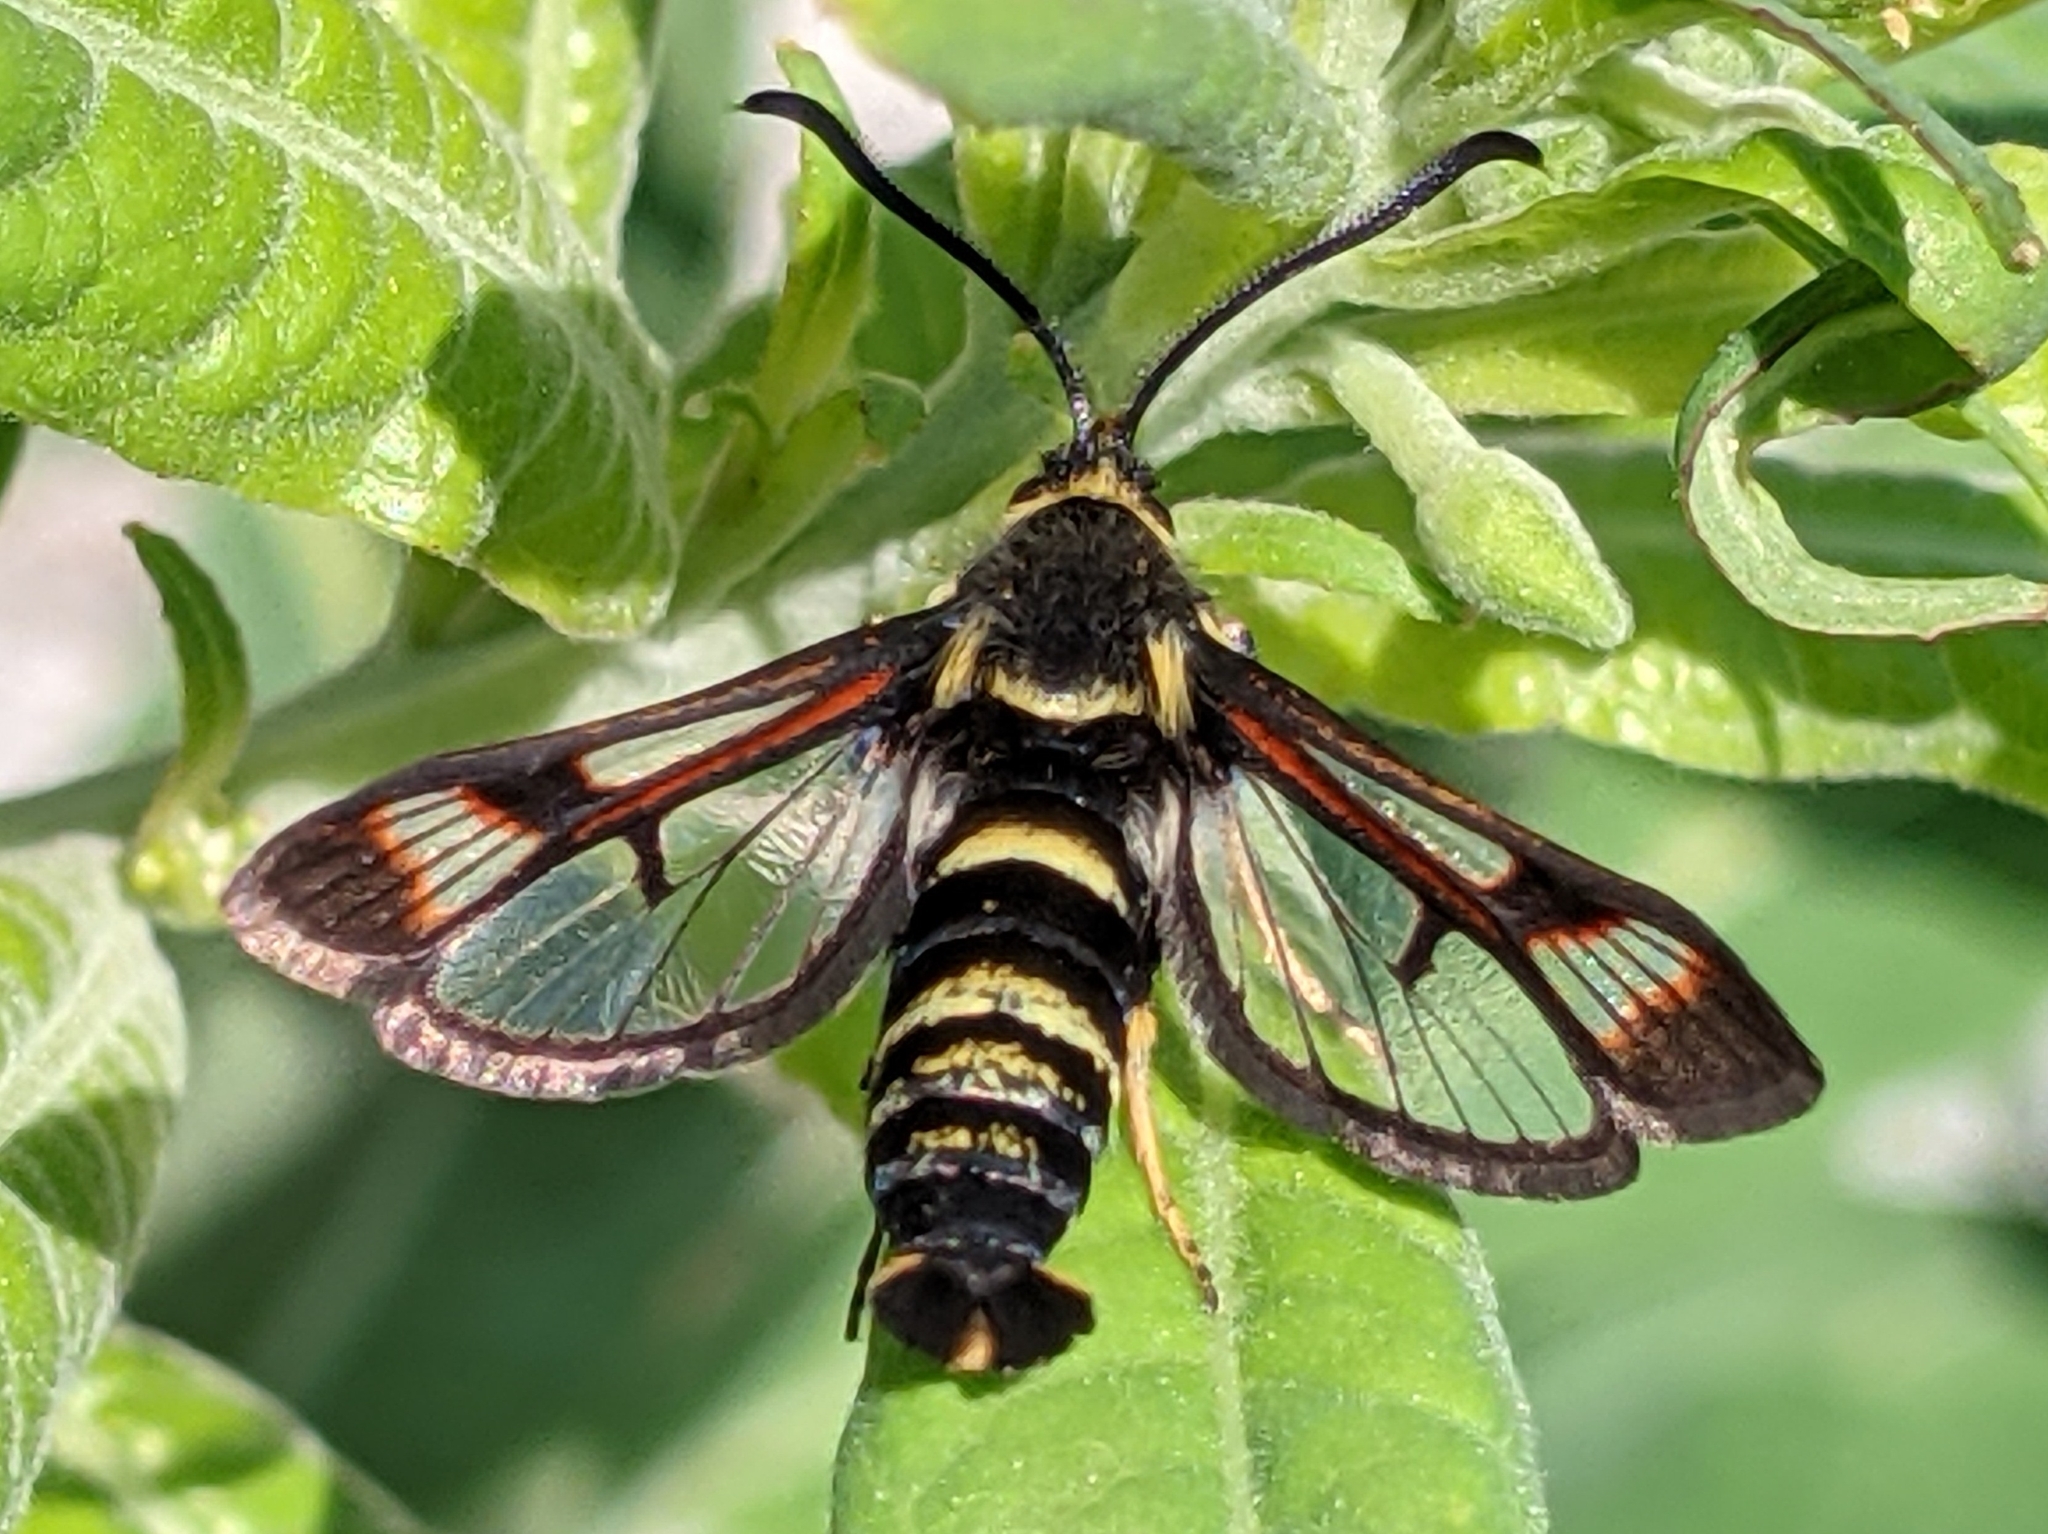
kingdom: Animalia
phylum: Arthropoda
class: Insecta
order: Lepidoptera
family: Sesiidae
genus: Albuna
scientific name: Albuna pyramidalis
